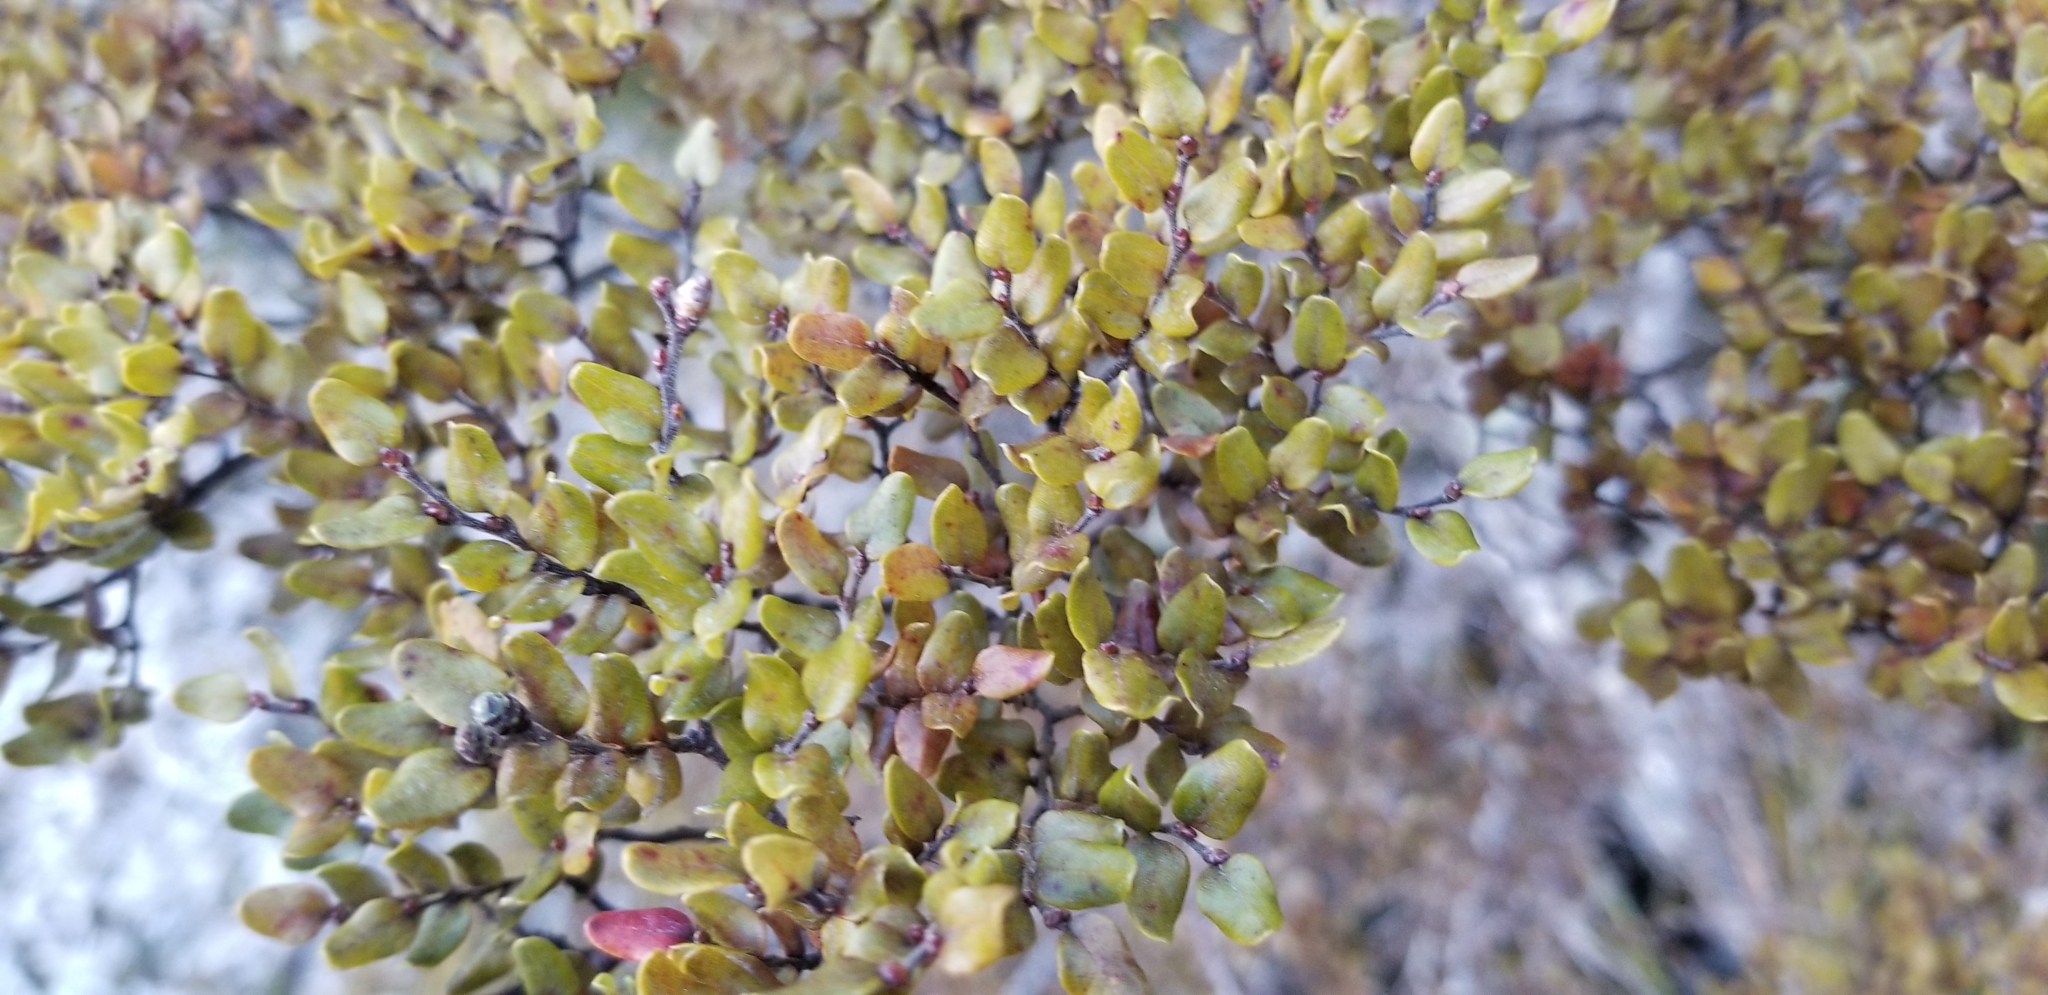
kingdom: Plantae
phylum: Tracheophyta
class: Magnoliopsida
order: Fagales
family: Nothofagaceae
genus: Nothofagus
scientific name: Nothofagus cliffortioides
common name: Mountain beech
